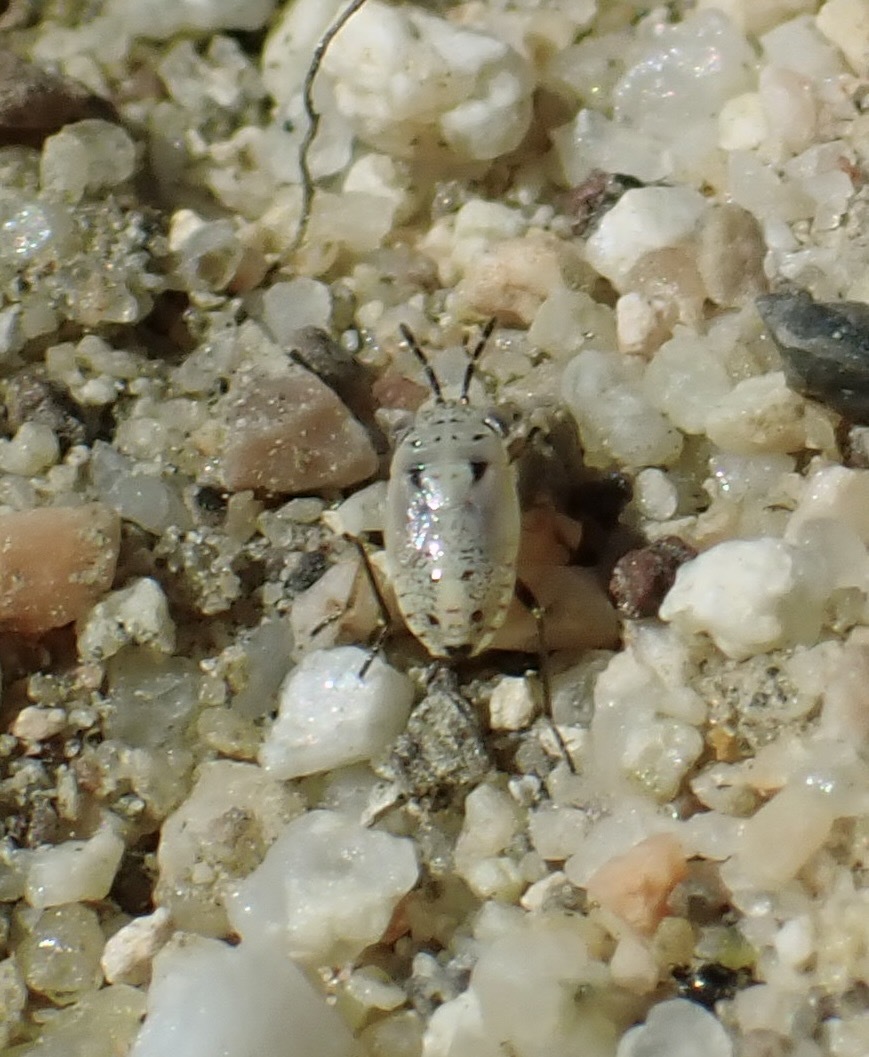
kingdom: Animalia
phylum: Arthropoda
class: Insecta
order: Hemiptera
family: Geocoridae
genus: Geocoris
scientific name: Geocoris pallens
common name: Big-eyed bug
